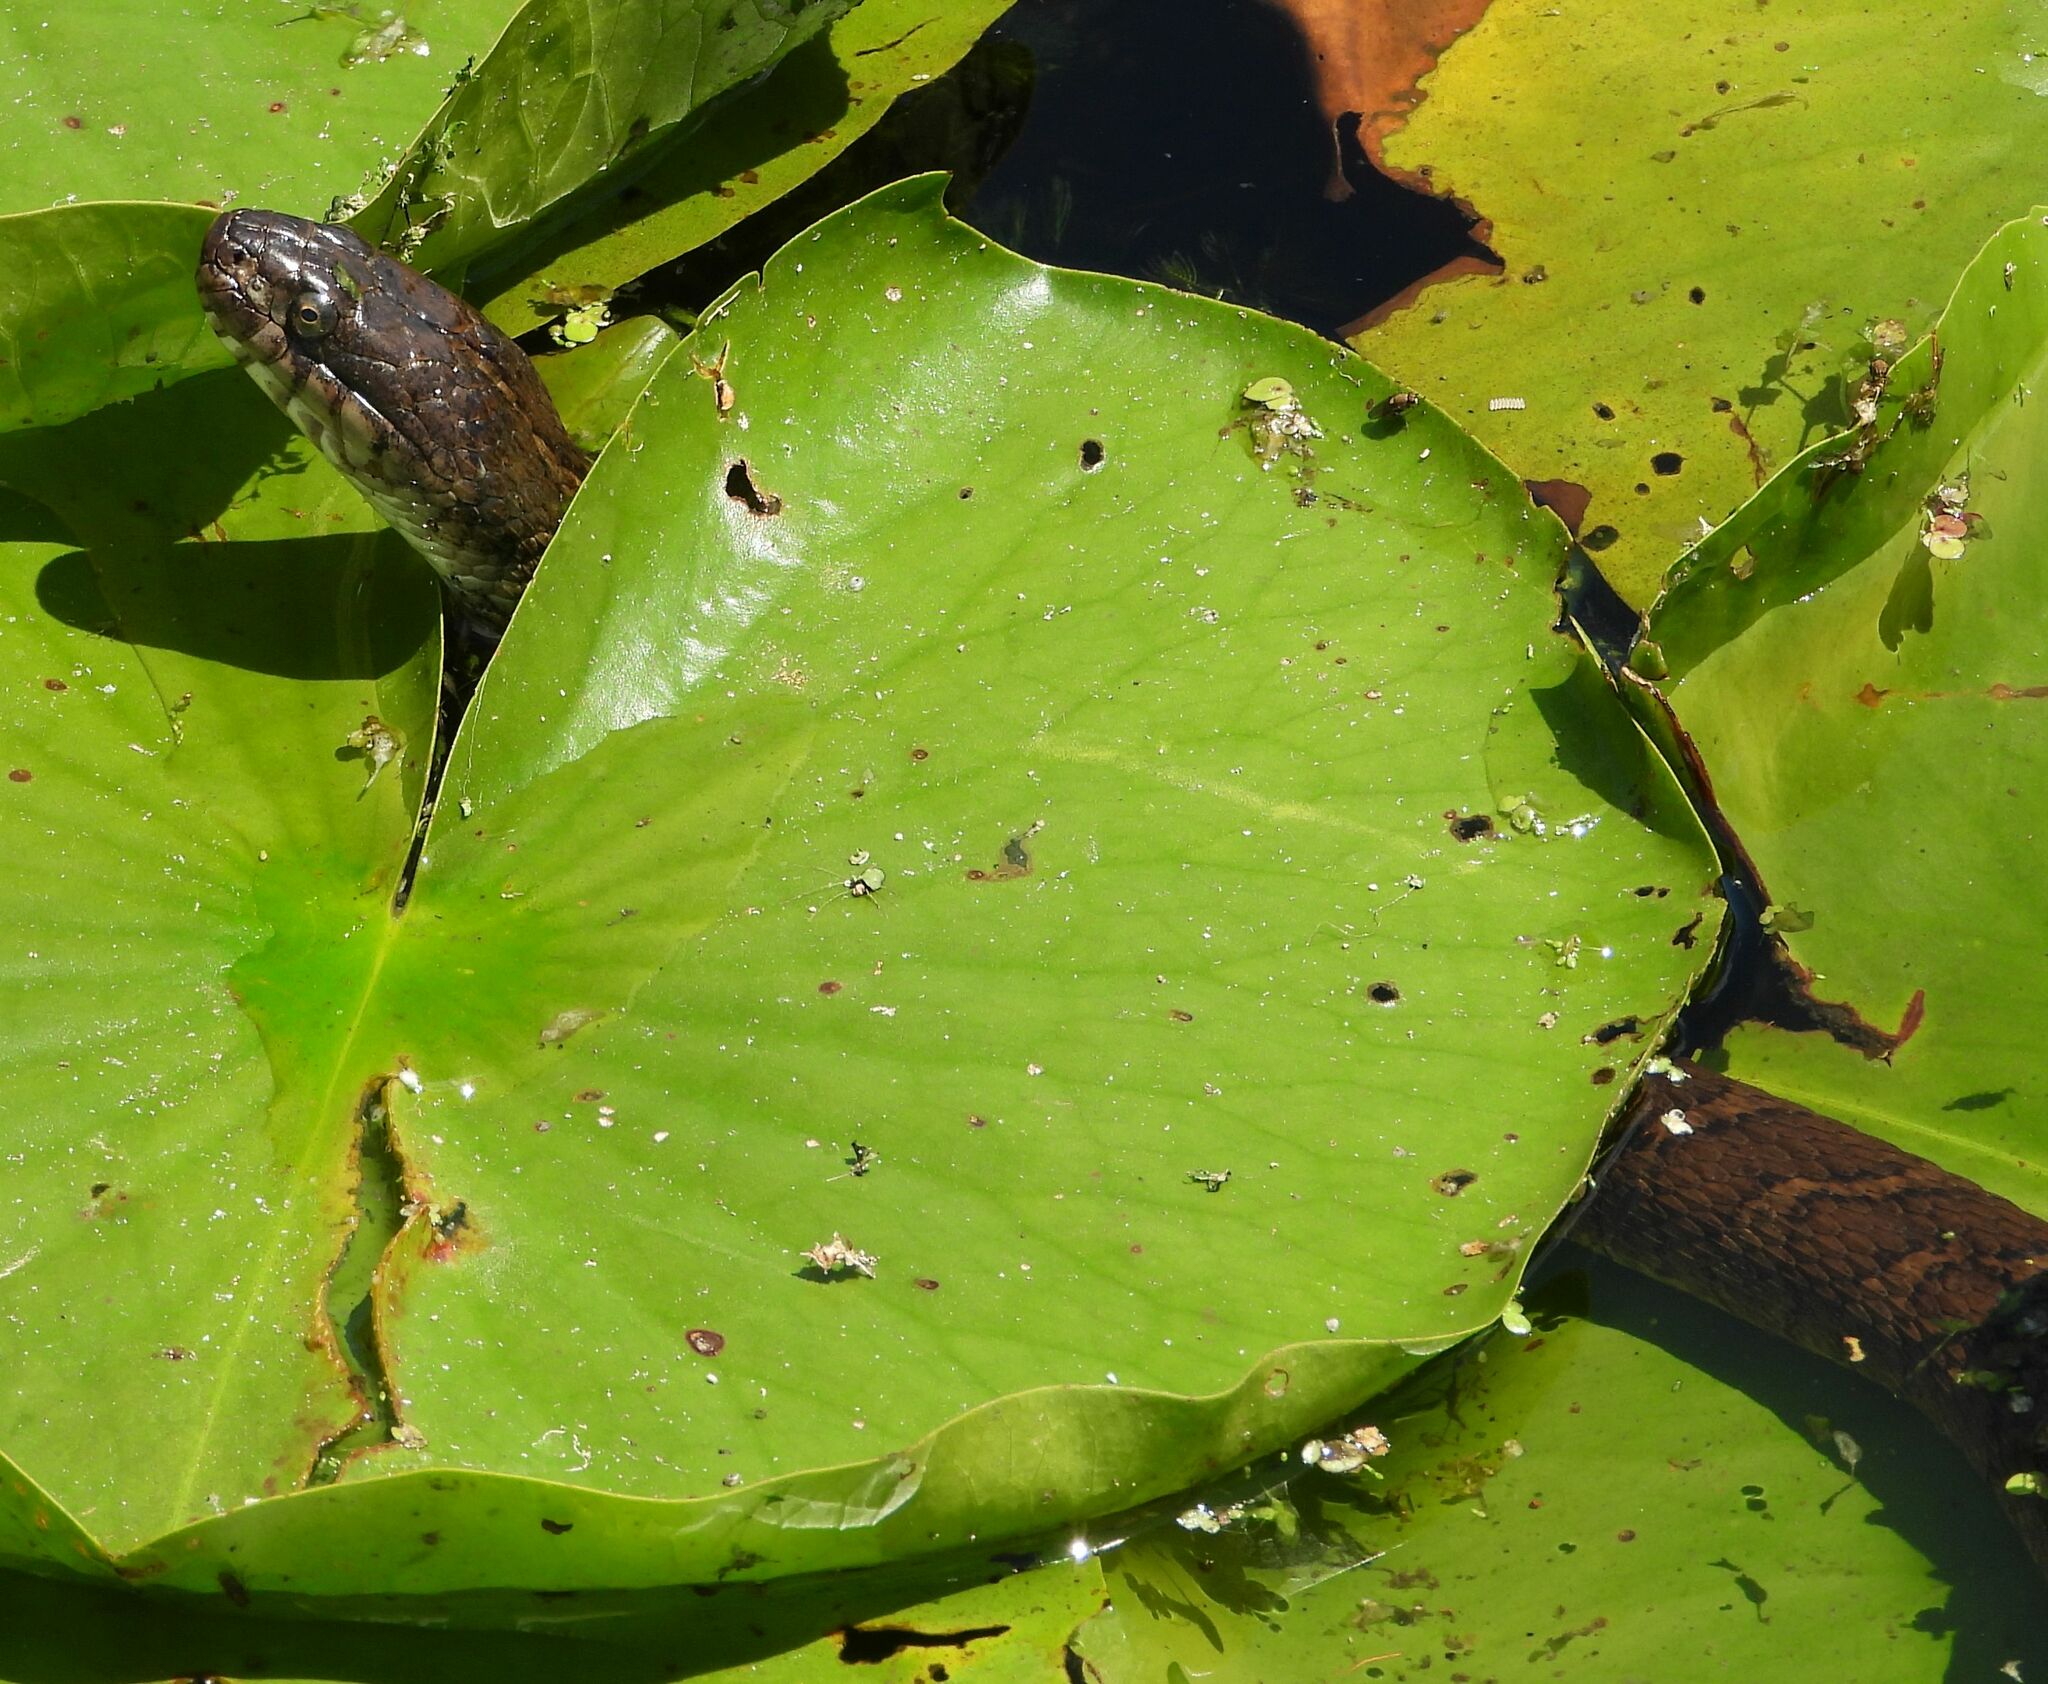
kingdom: Animalia
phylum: Chordata
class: Squamata
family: Colubridae
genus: Nerodia
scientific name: Nerodia sipedon
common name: Northern water snake
